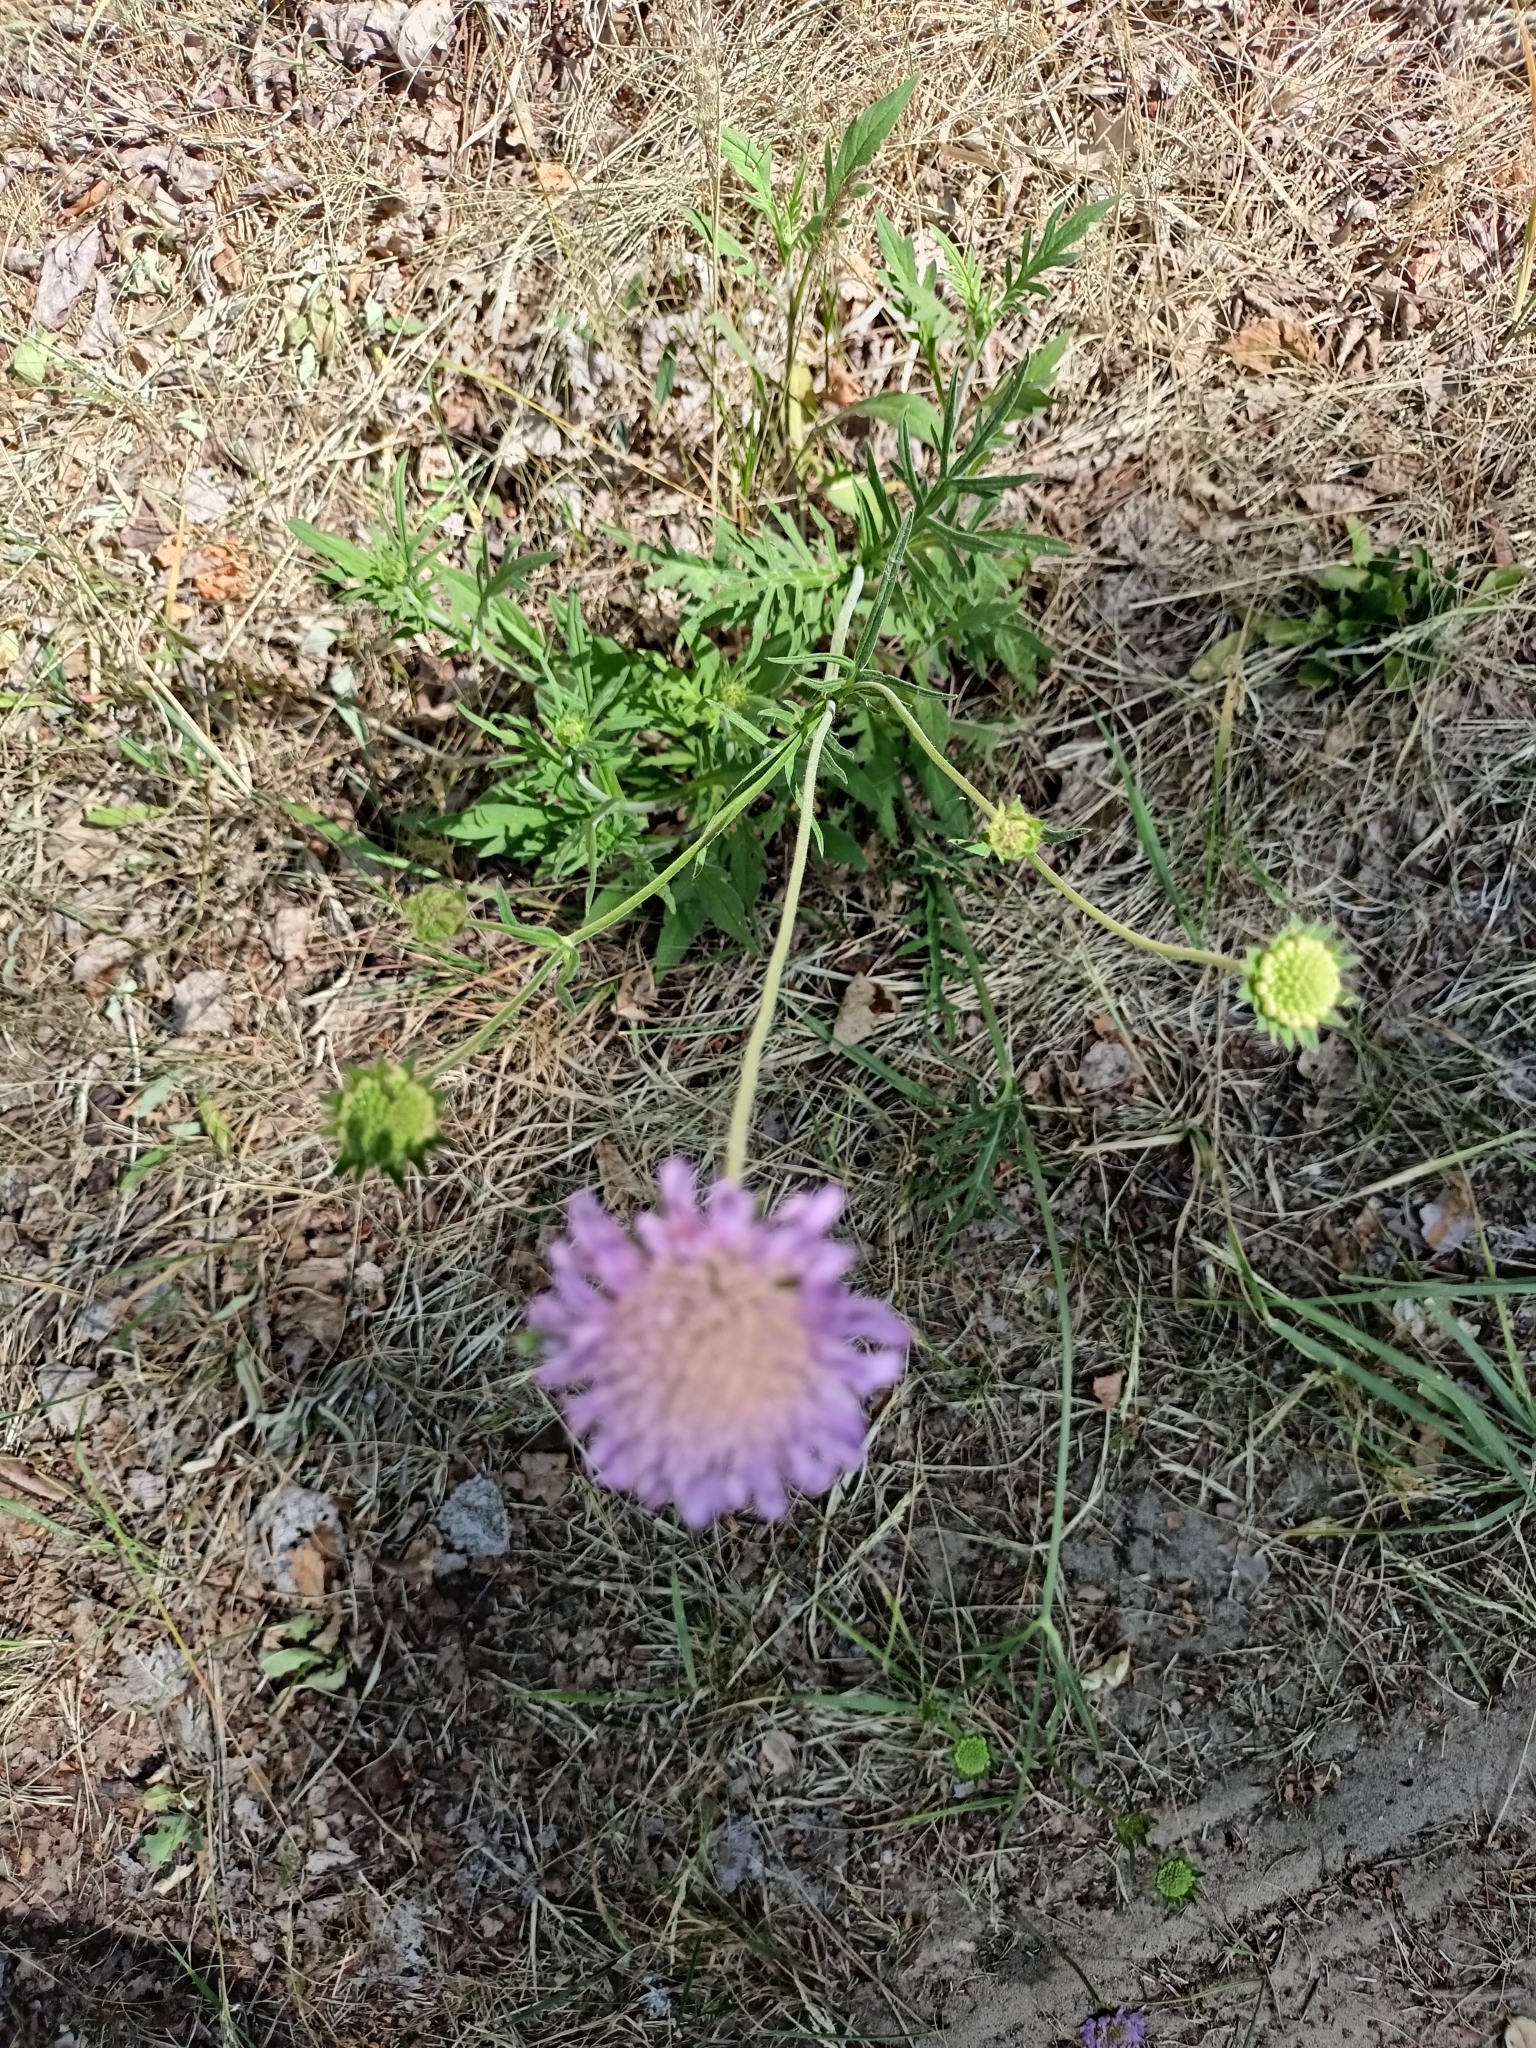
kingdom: Plantae
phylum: Tracheophyta
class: Magnoliopsida
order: Dipsacales
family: Caprifoliaceae
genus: Knautia
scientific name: Knautia arvensis
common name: Field scabiosa
